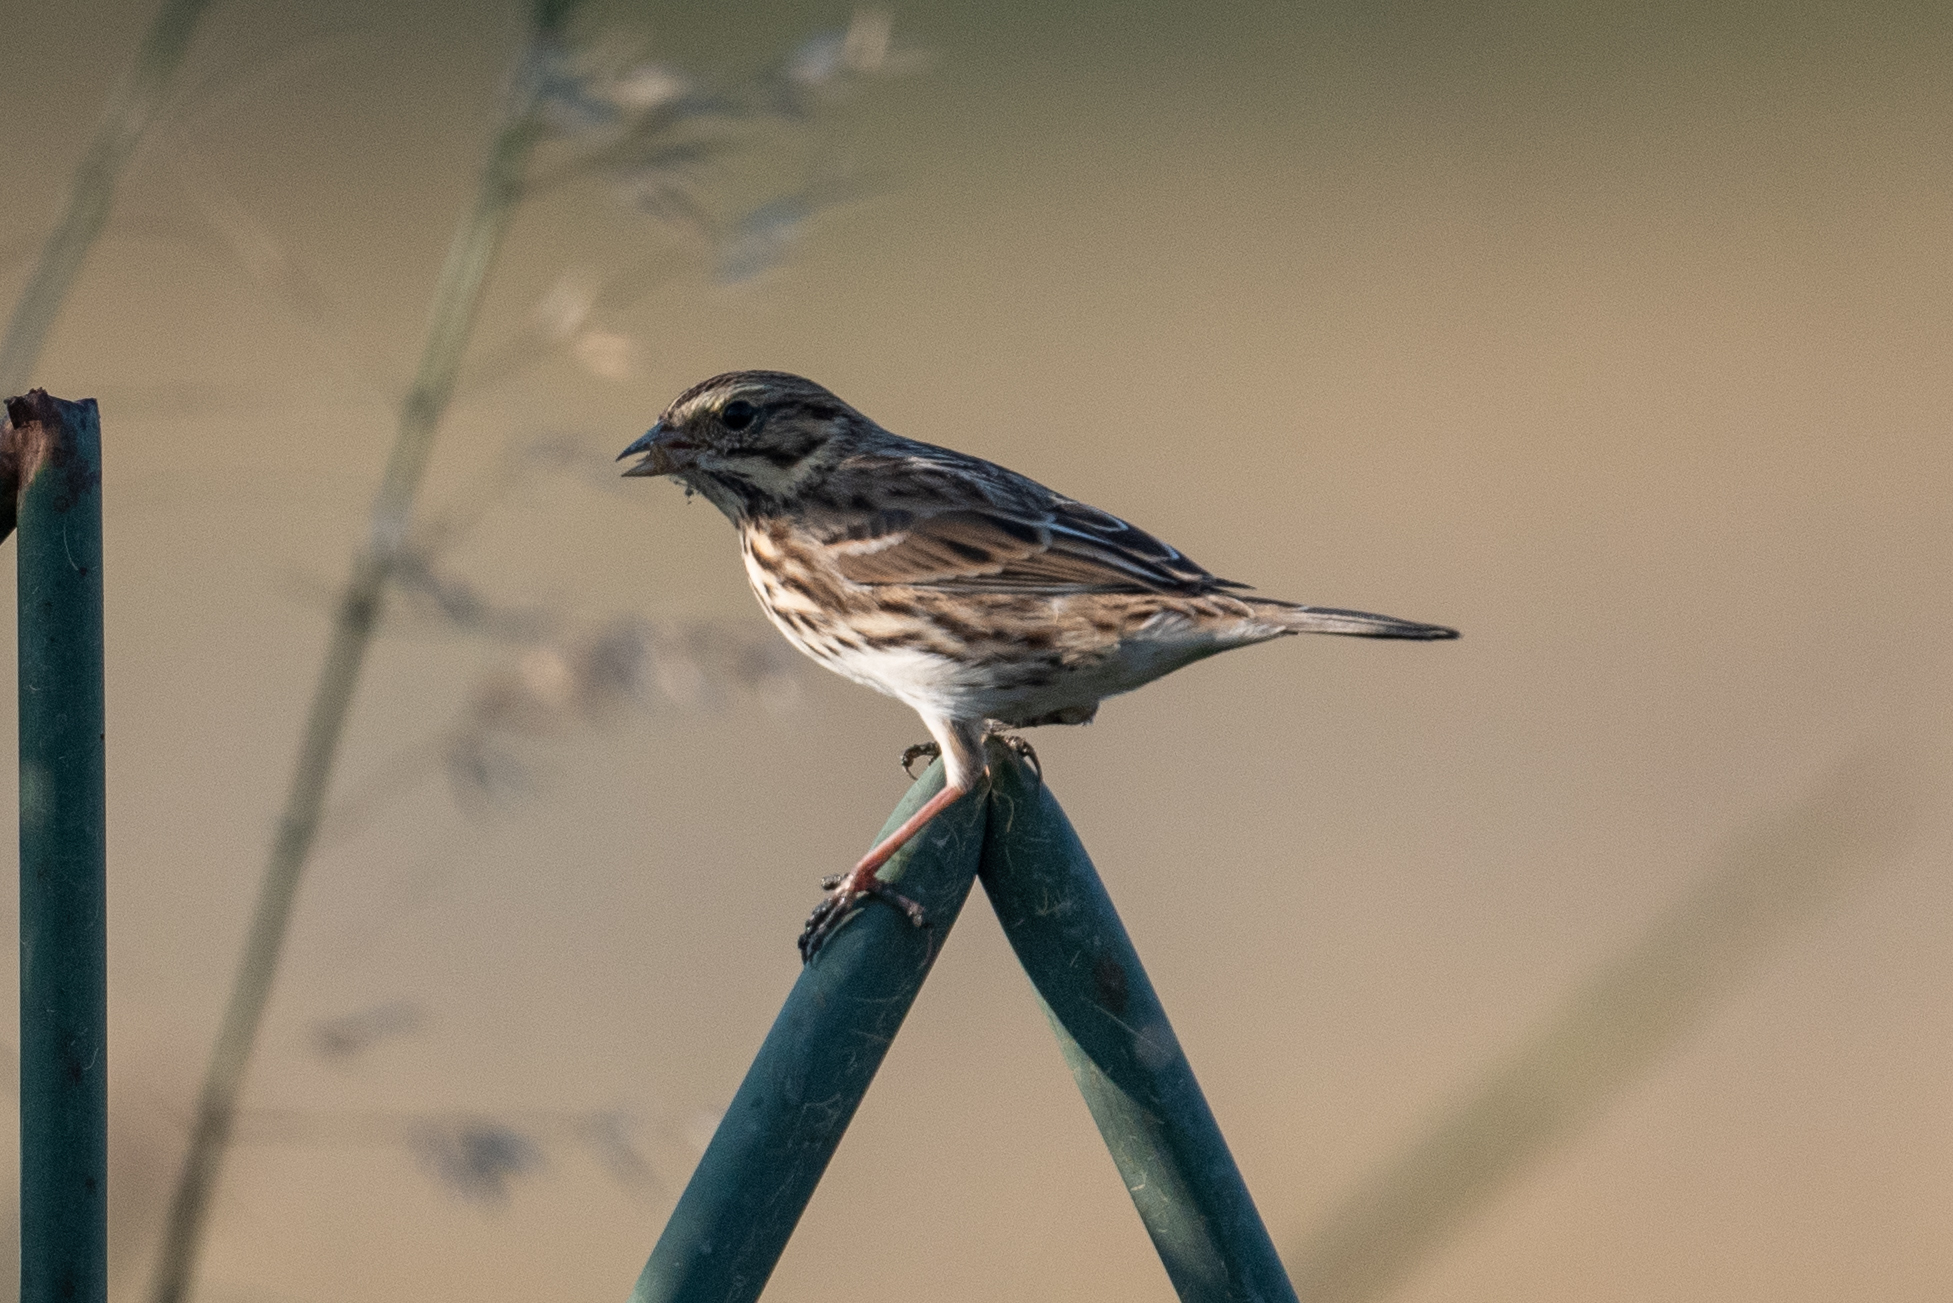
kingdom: Animalia
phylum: Chordata
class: Aves
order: Passeriformes
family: Passerellidae
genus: Passerculus
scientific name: Passerculus sandwichensis
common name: Savannah sparrow
